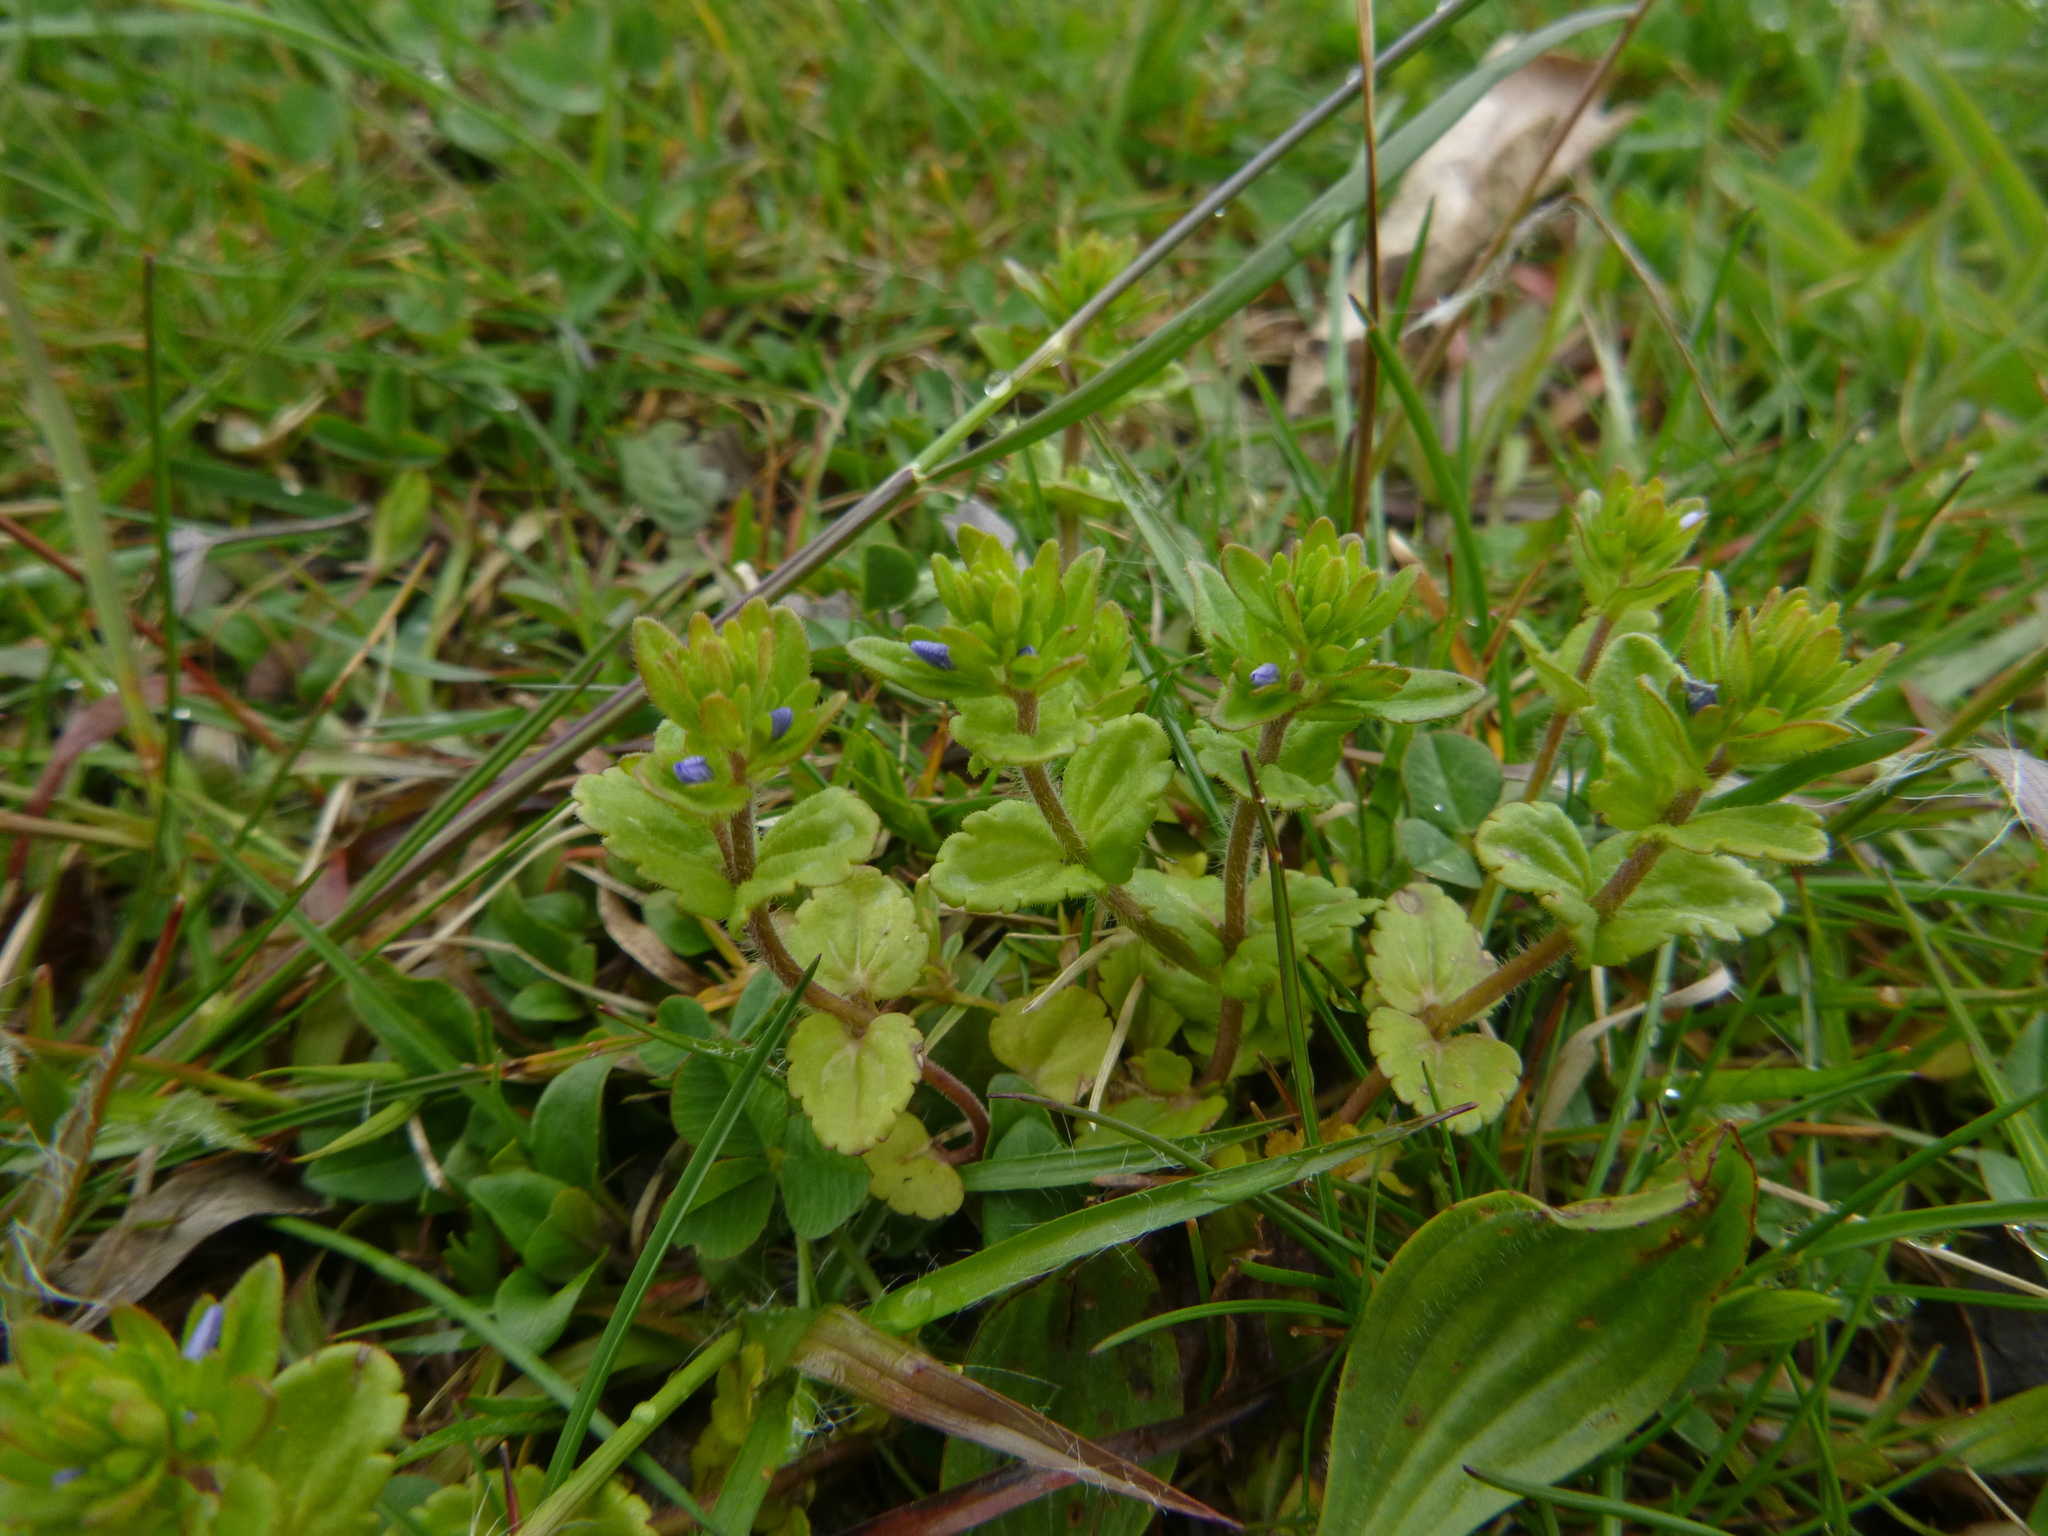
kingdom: Plantae
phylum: Tracheophyta
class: Magnoliopsida
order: Lamiales
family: Plantaginaceae
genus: Veronica
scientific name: Veronica arvensis
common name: Corn speedwell
